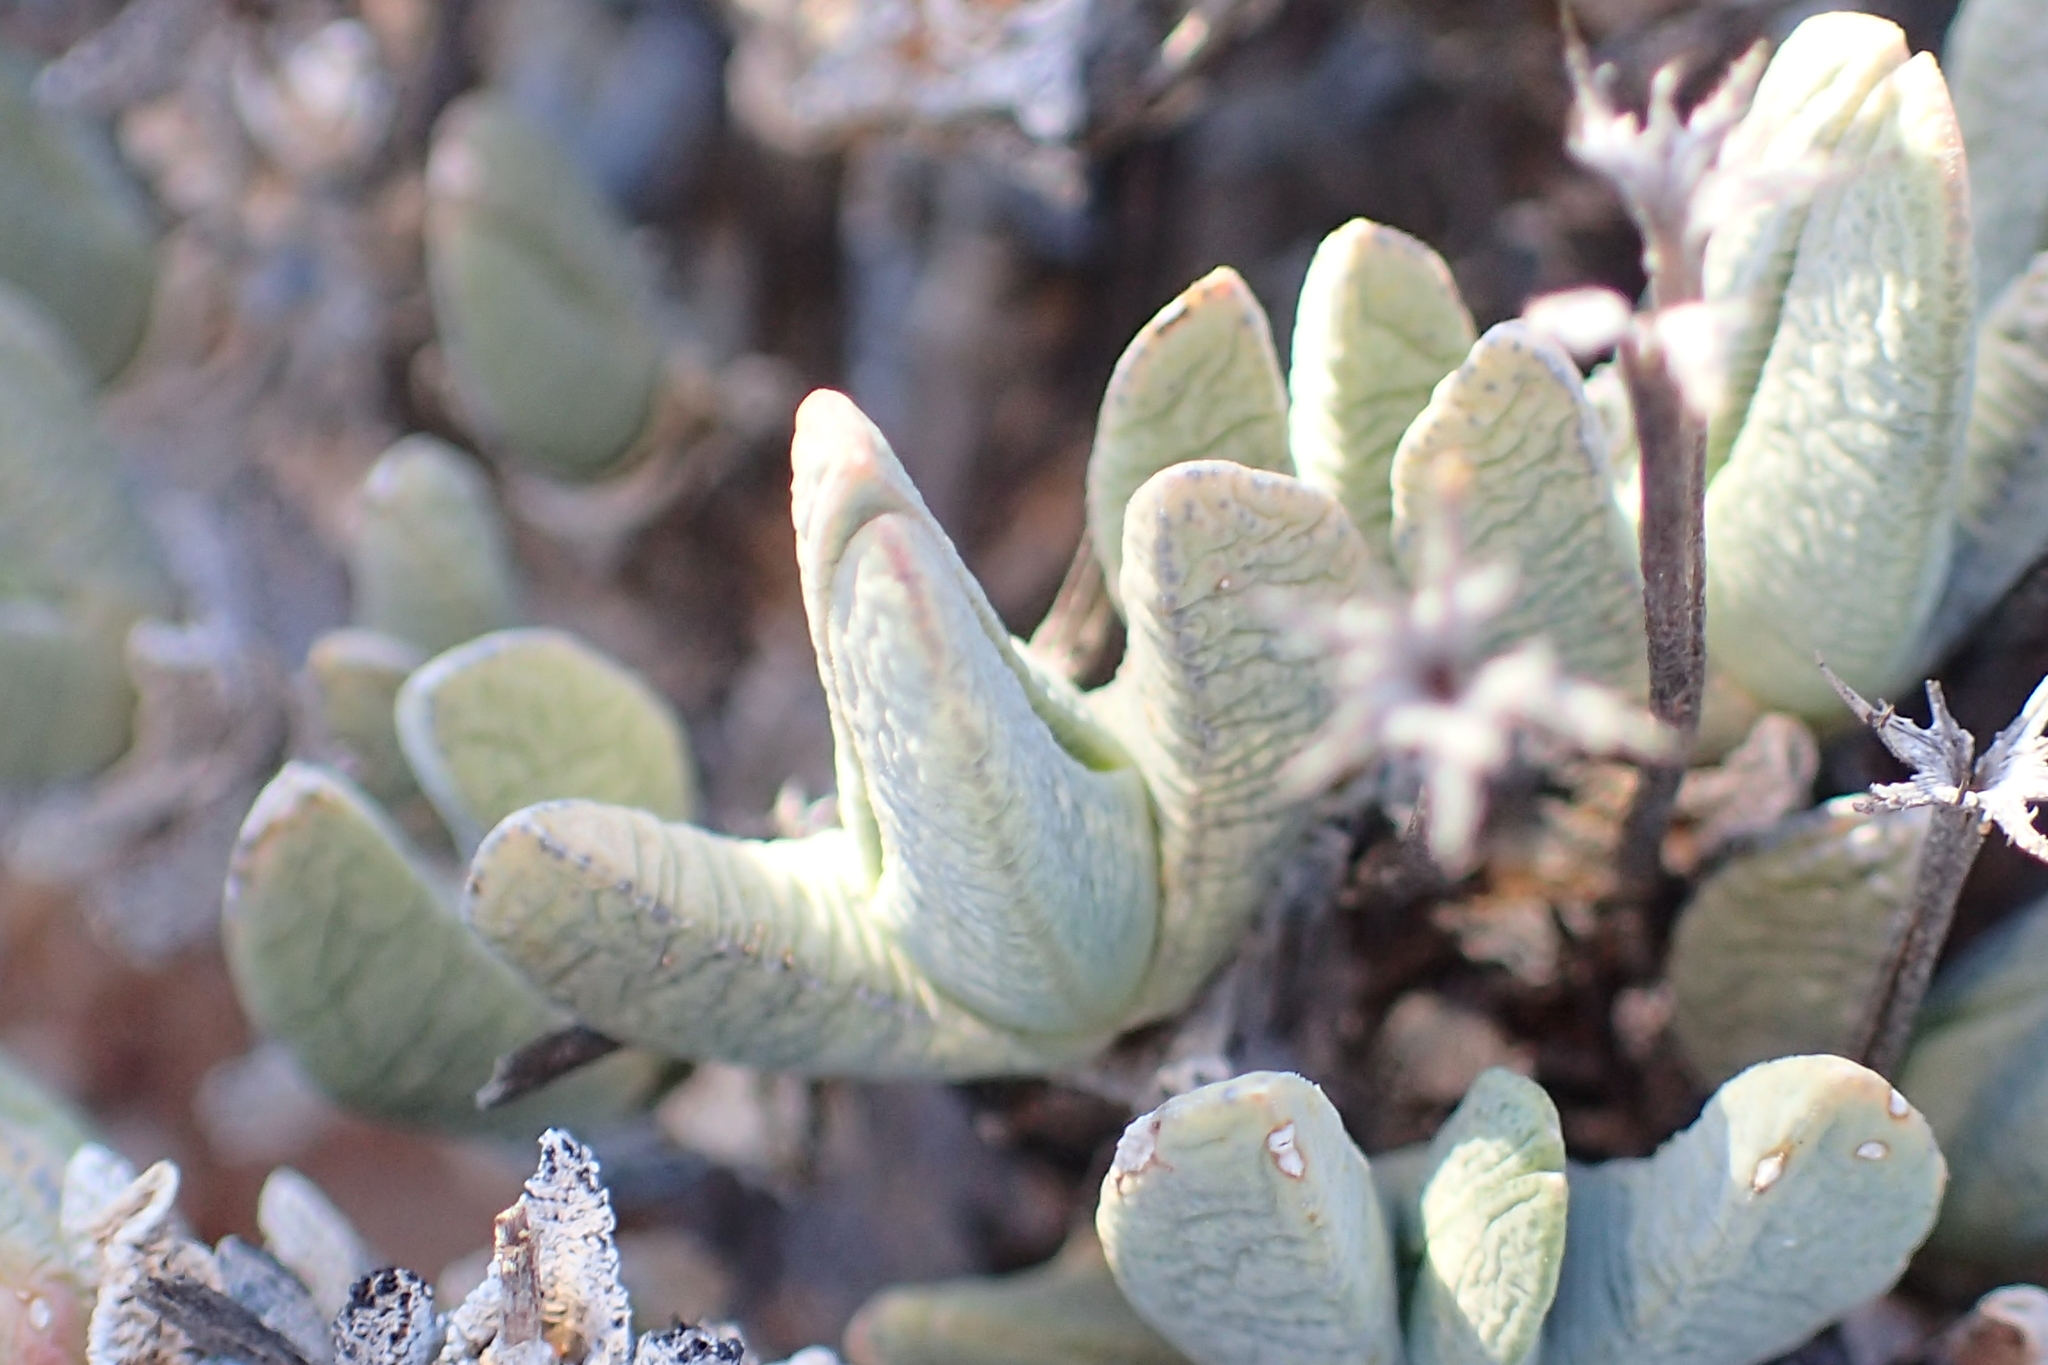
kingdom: Plantae
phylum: Tracheophyta
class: Magnoliopsida
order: Caryophyllales
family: Aizoaceae
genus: Antimima
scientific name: Antimima piscodora
